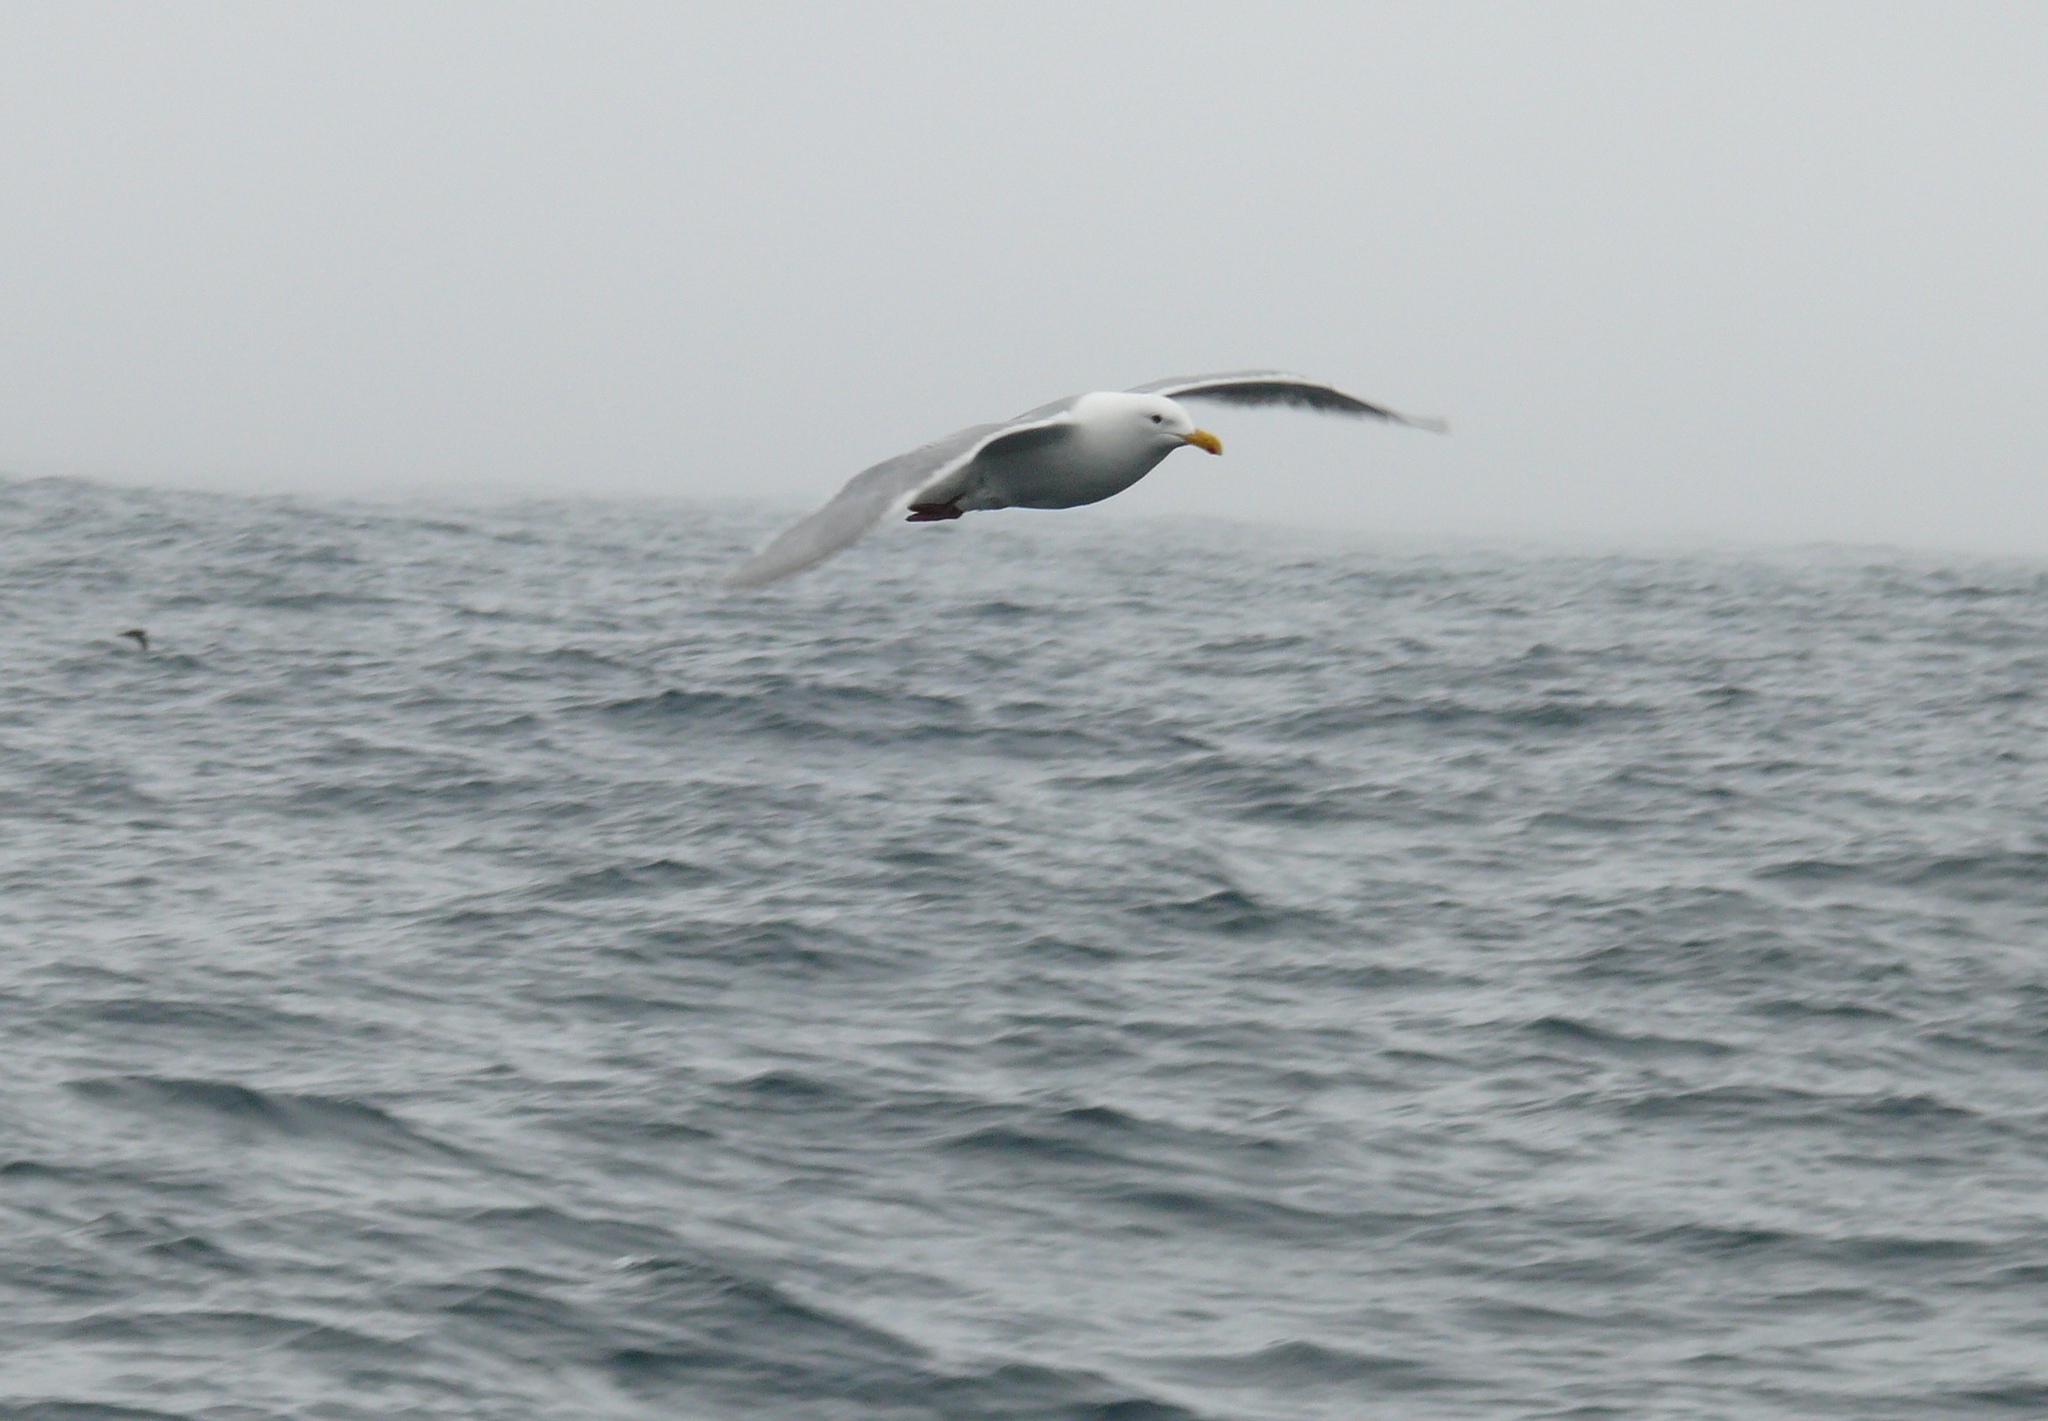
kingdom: Animalia
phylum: Chordata
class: Aves
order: Charadriiformes
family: Laridae
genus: Larus
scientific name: Larus glaucescens
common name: Glaucous-winged gull
